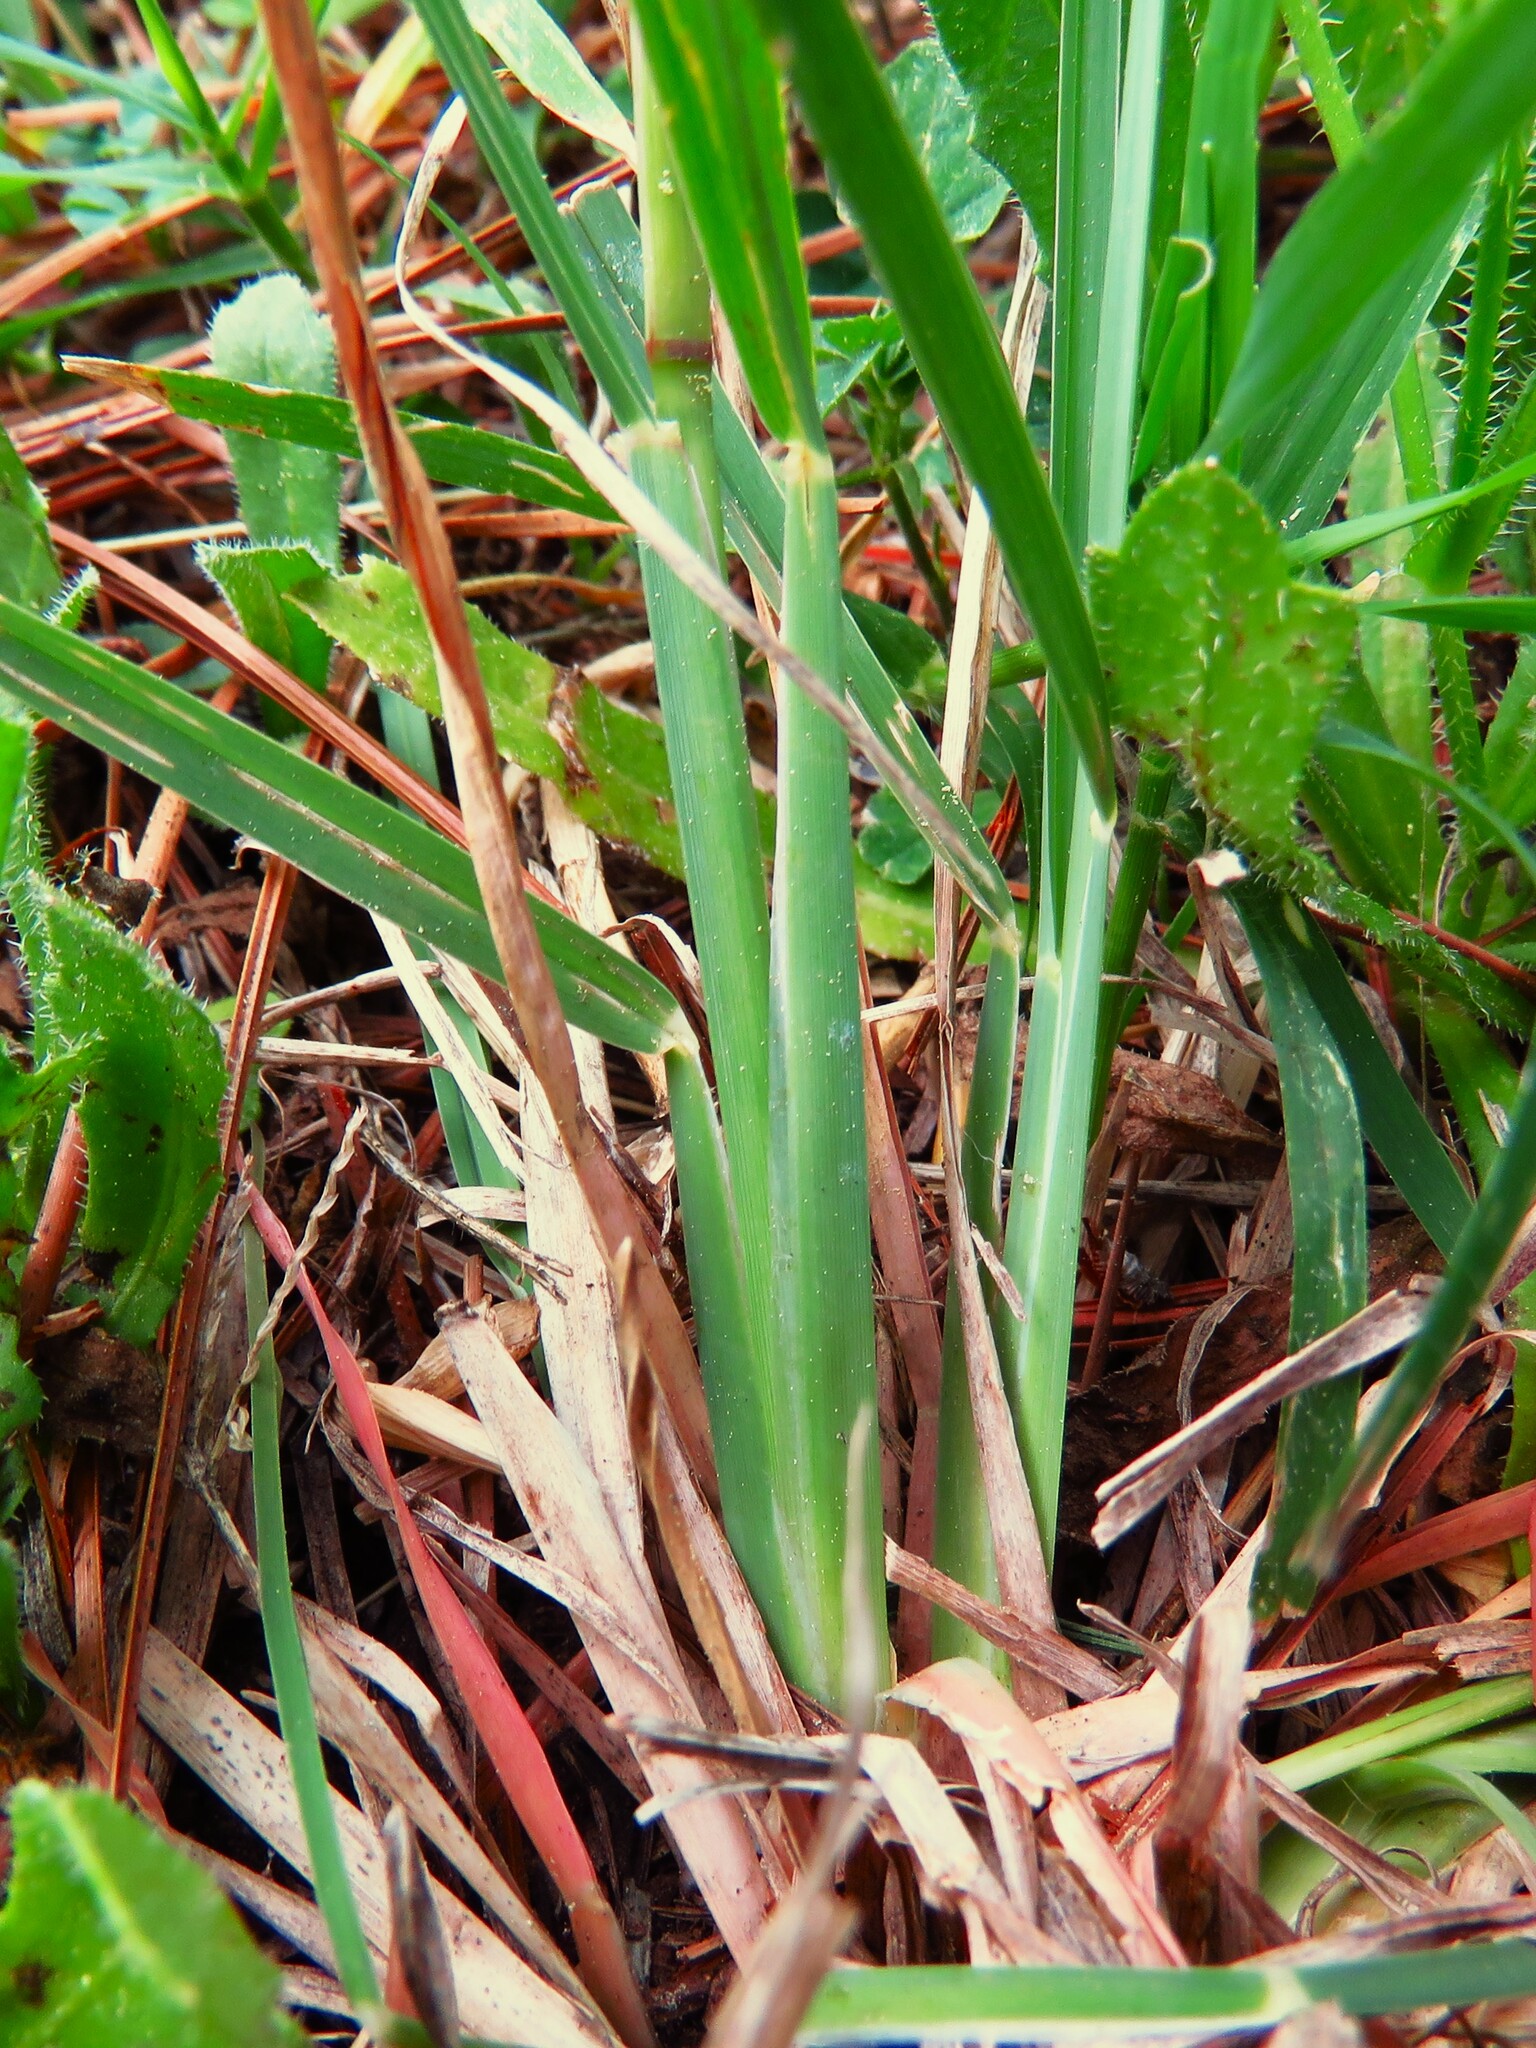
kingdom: Plantae
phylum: Tracheophyta
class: Liliopsida
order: Poales
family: Poaceae
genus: Chloris
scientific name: Chloris cucullata
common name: Hooded windmill grass
